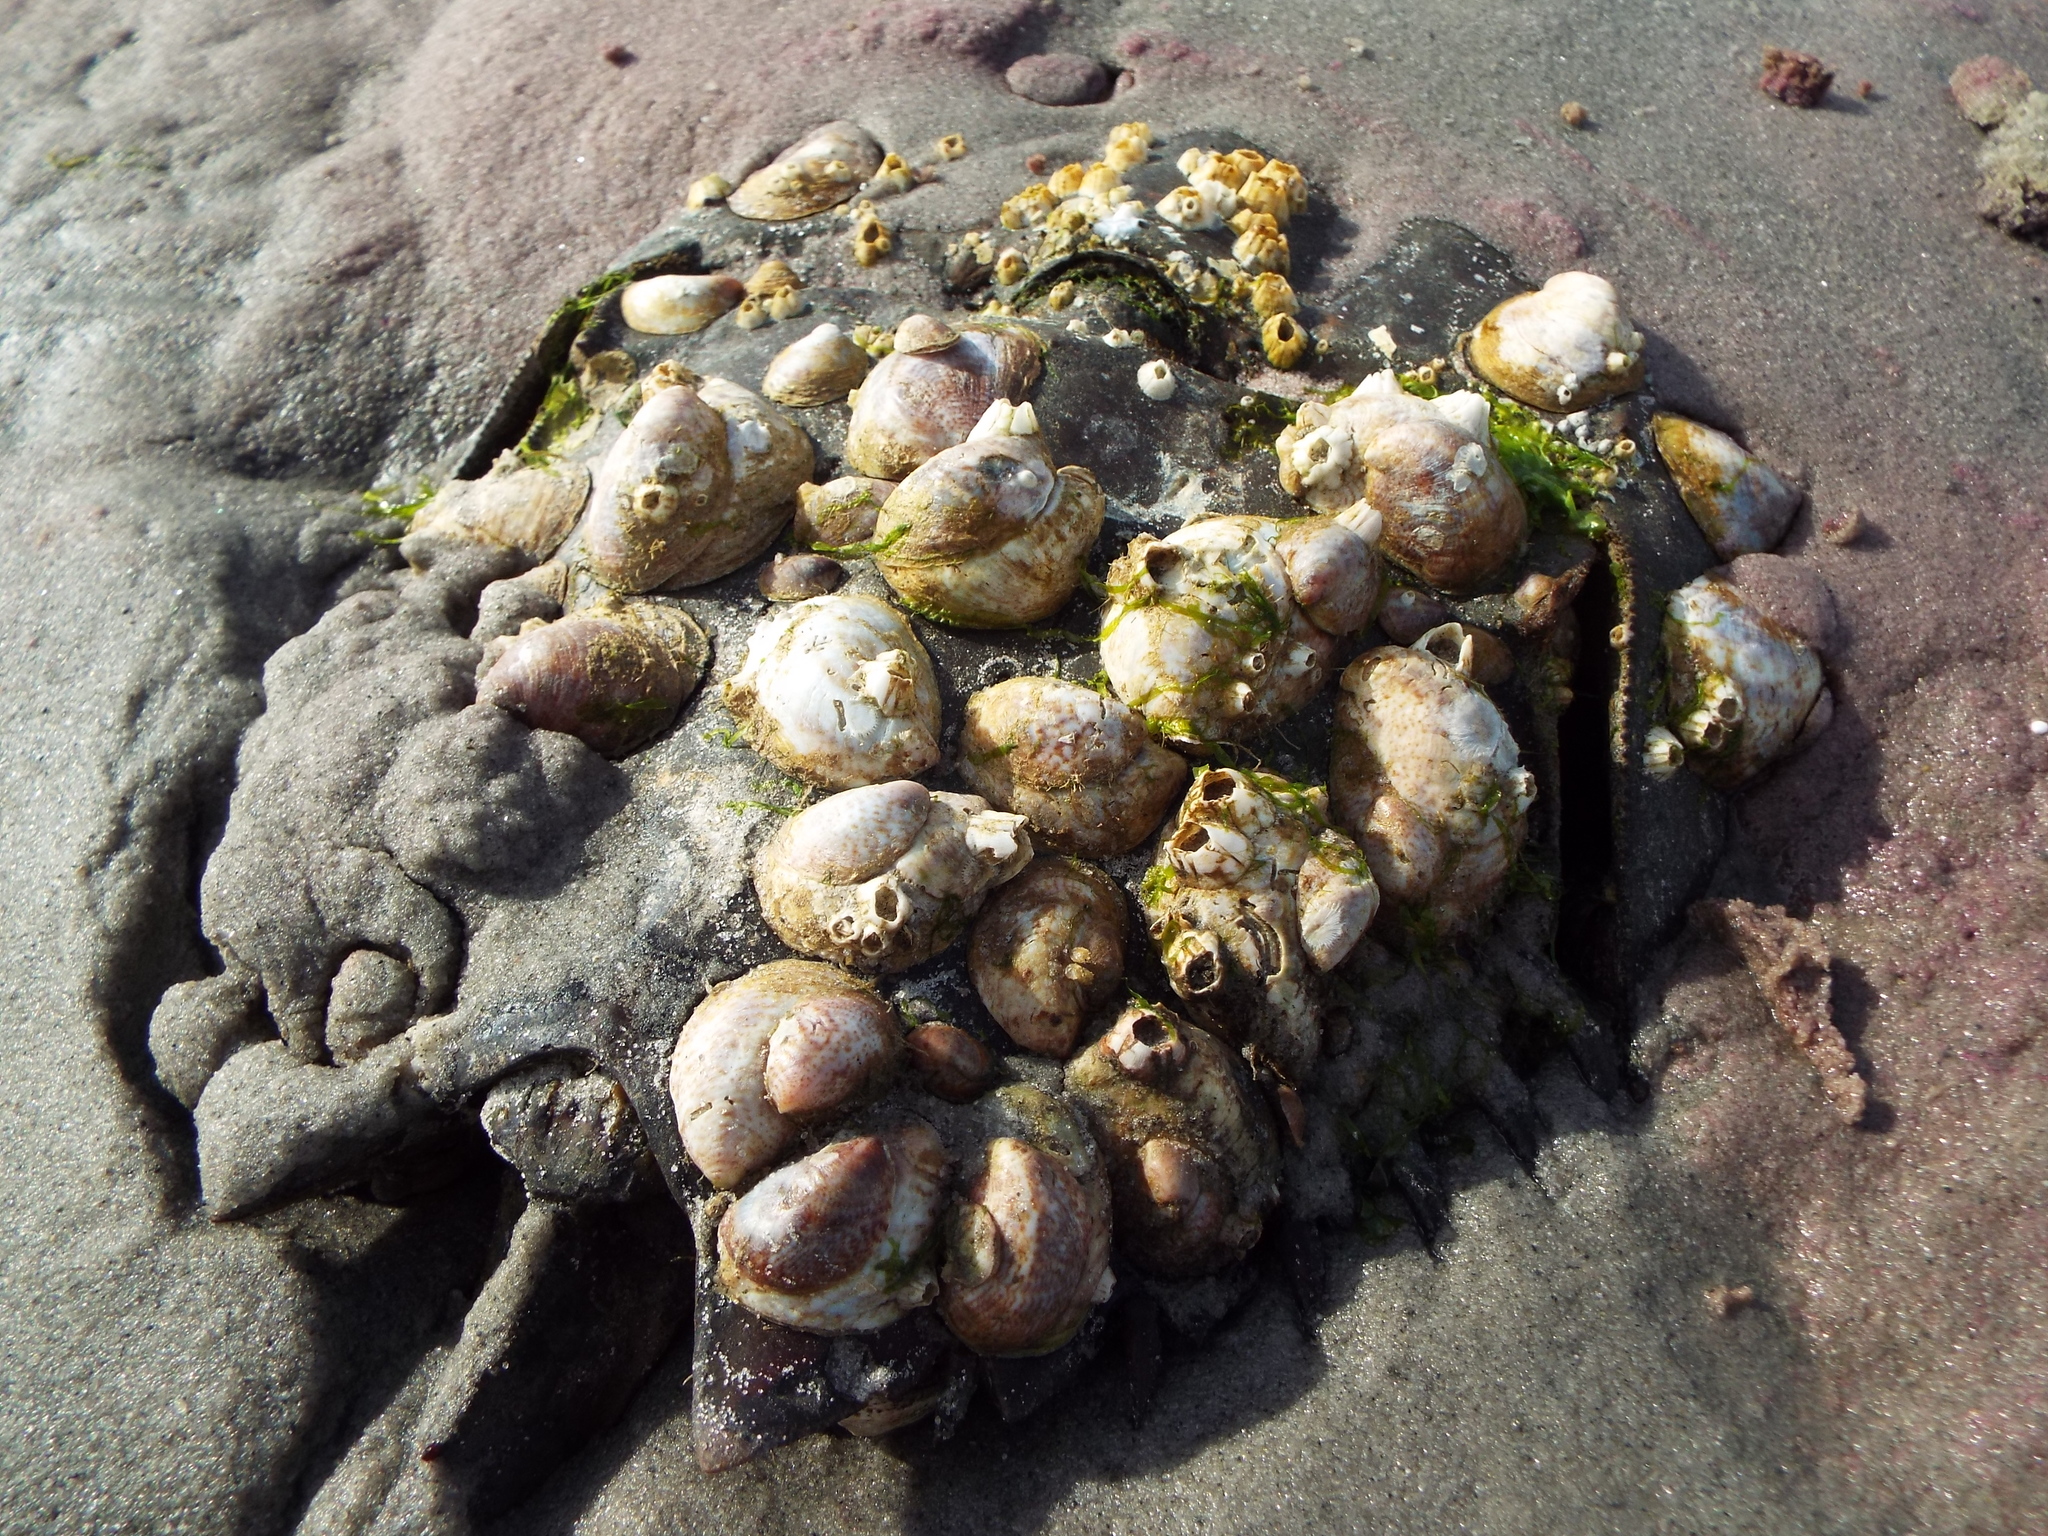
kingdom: Animalia
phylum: Mollusca
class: Gastropoda
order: Littorinimorpha
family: Calyptraeidae
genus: Crepidula
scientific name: Crepidula fornicata
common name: Slipper limpet
